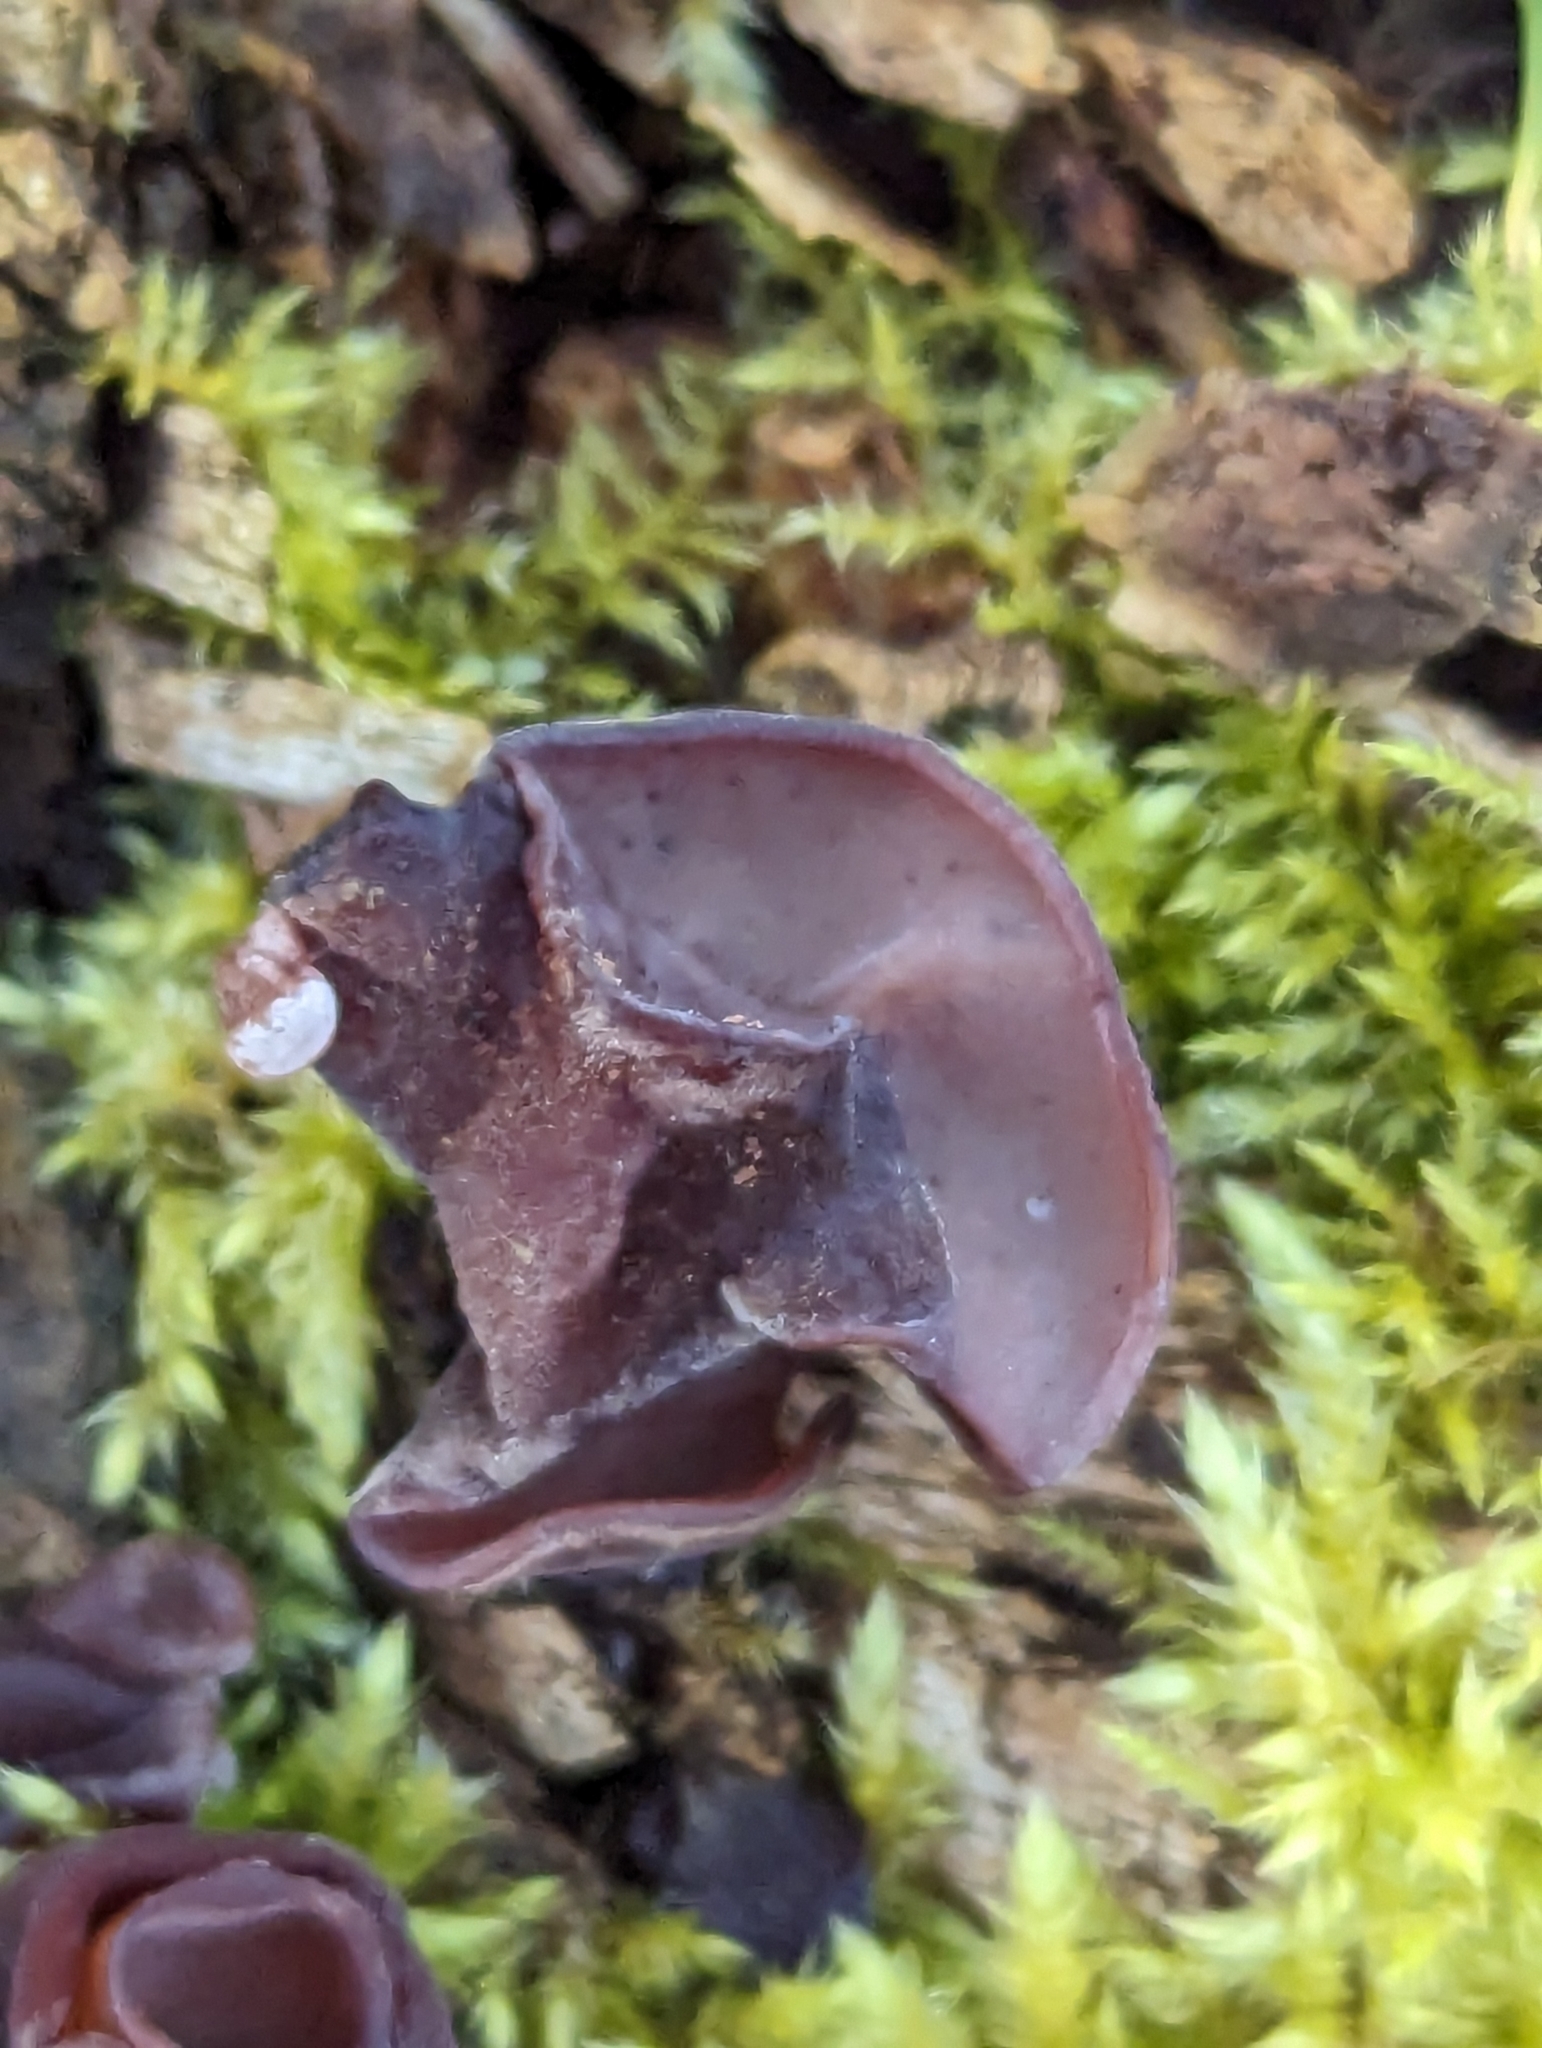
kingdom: Fungi
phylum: Basidiomycota
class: Agaricomycetes
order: Auriculariales
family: Auriculariaceae
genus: Auricularia
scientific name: Auricularia auricula-judae
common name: Jelly ear
